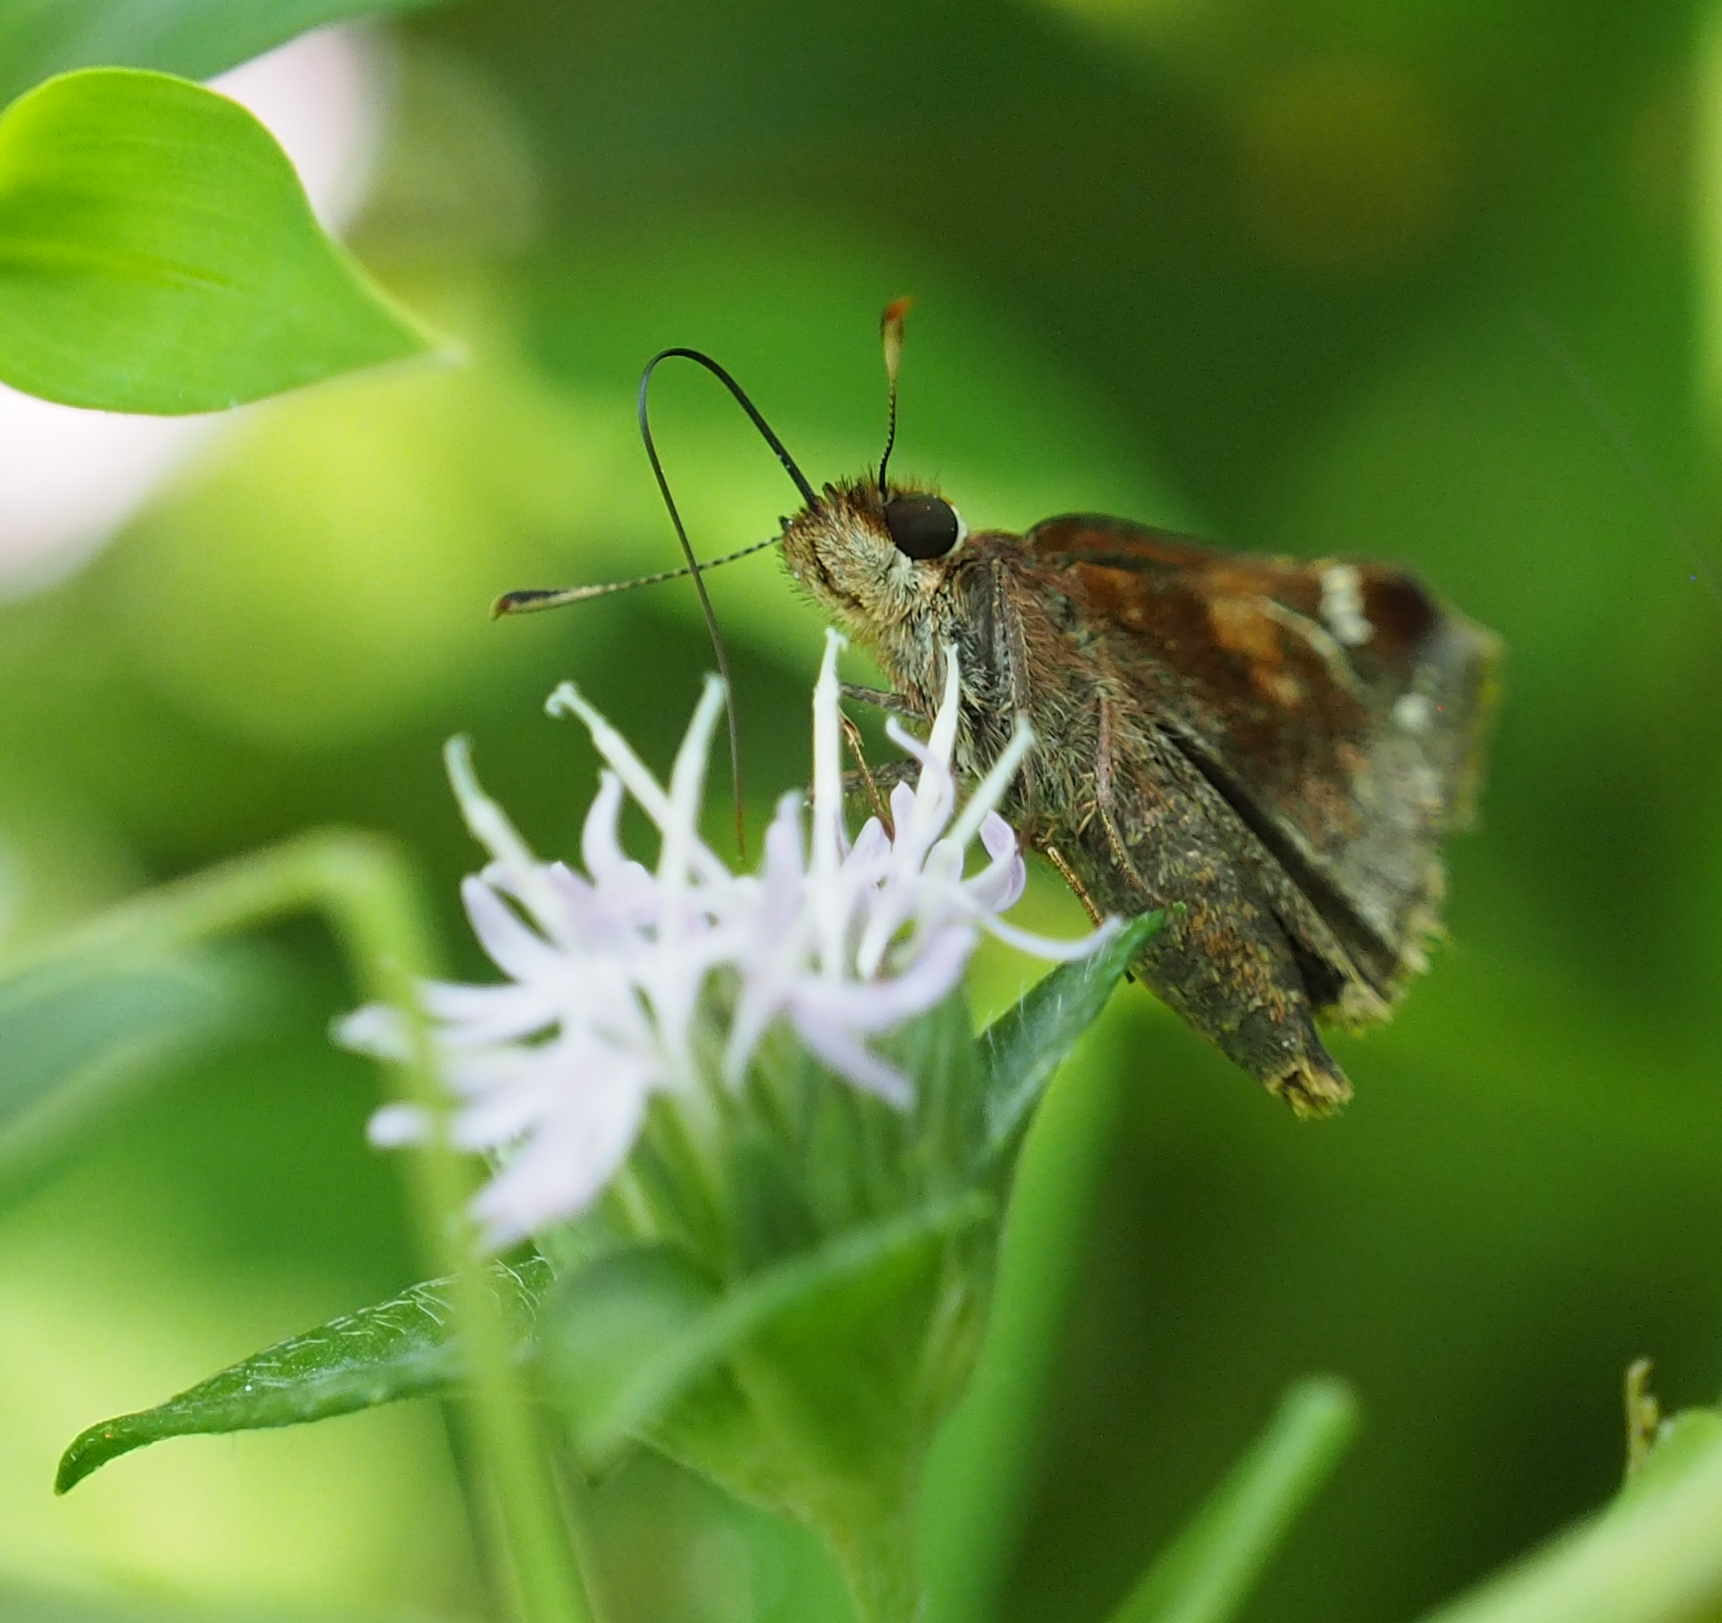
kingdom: Animalia
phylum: Arthropoda
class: Insecta
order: Lepidoptera
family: Hesperiidae
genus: Lon
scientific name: Lon zabulon
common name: Zabulon skipper
